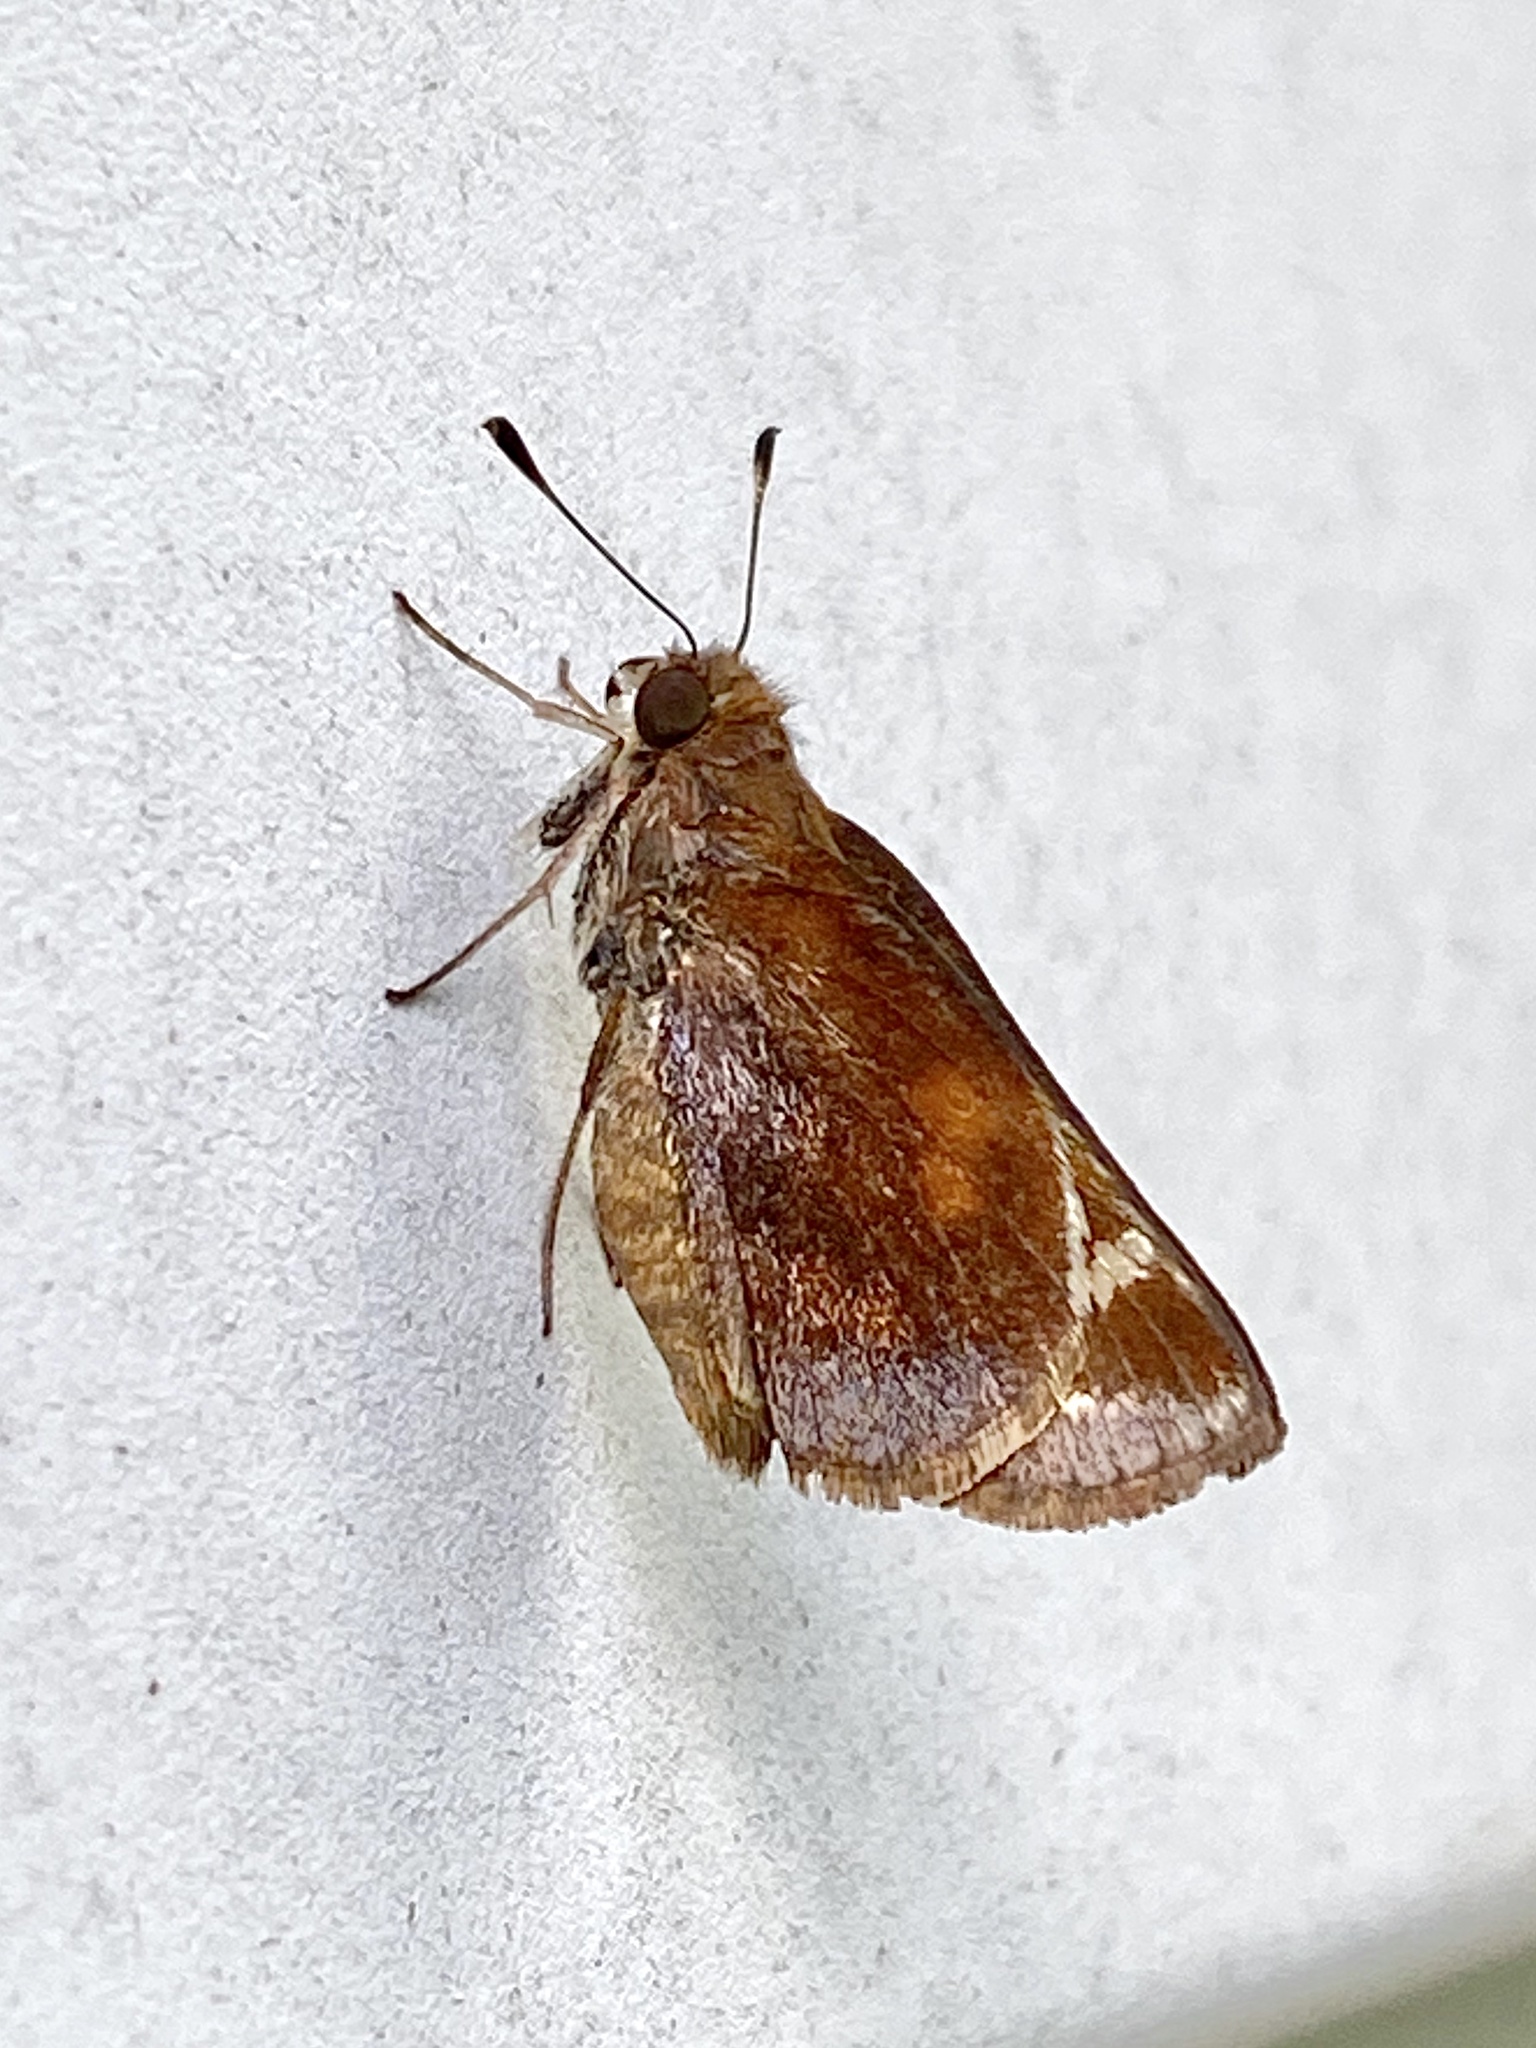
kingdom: Animalia
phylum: Arthropoda
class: Insecta
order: Lepidoptera
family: Hesperiidae
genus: Lon
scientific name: Lon zabulon
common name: Zabulon skipper
